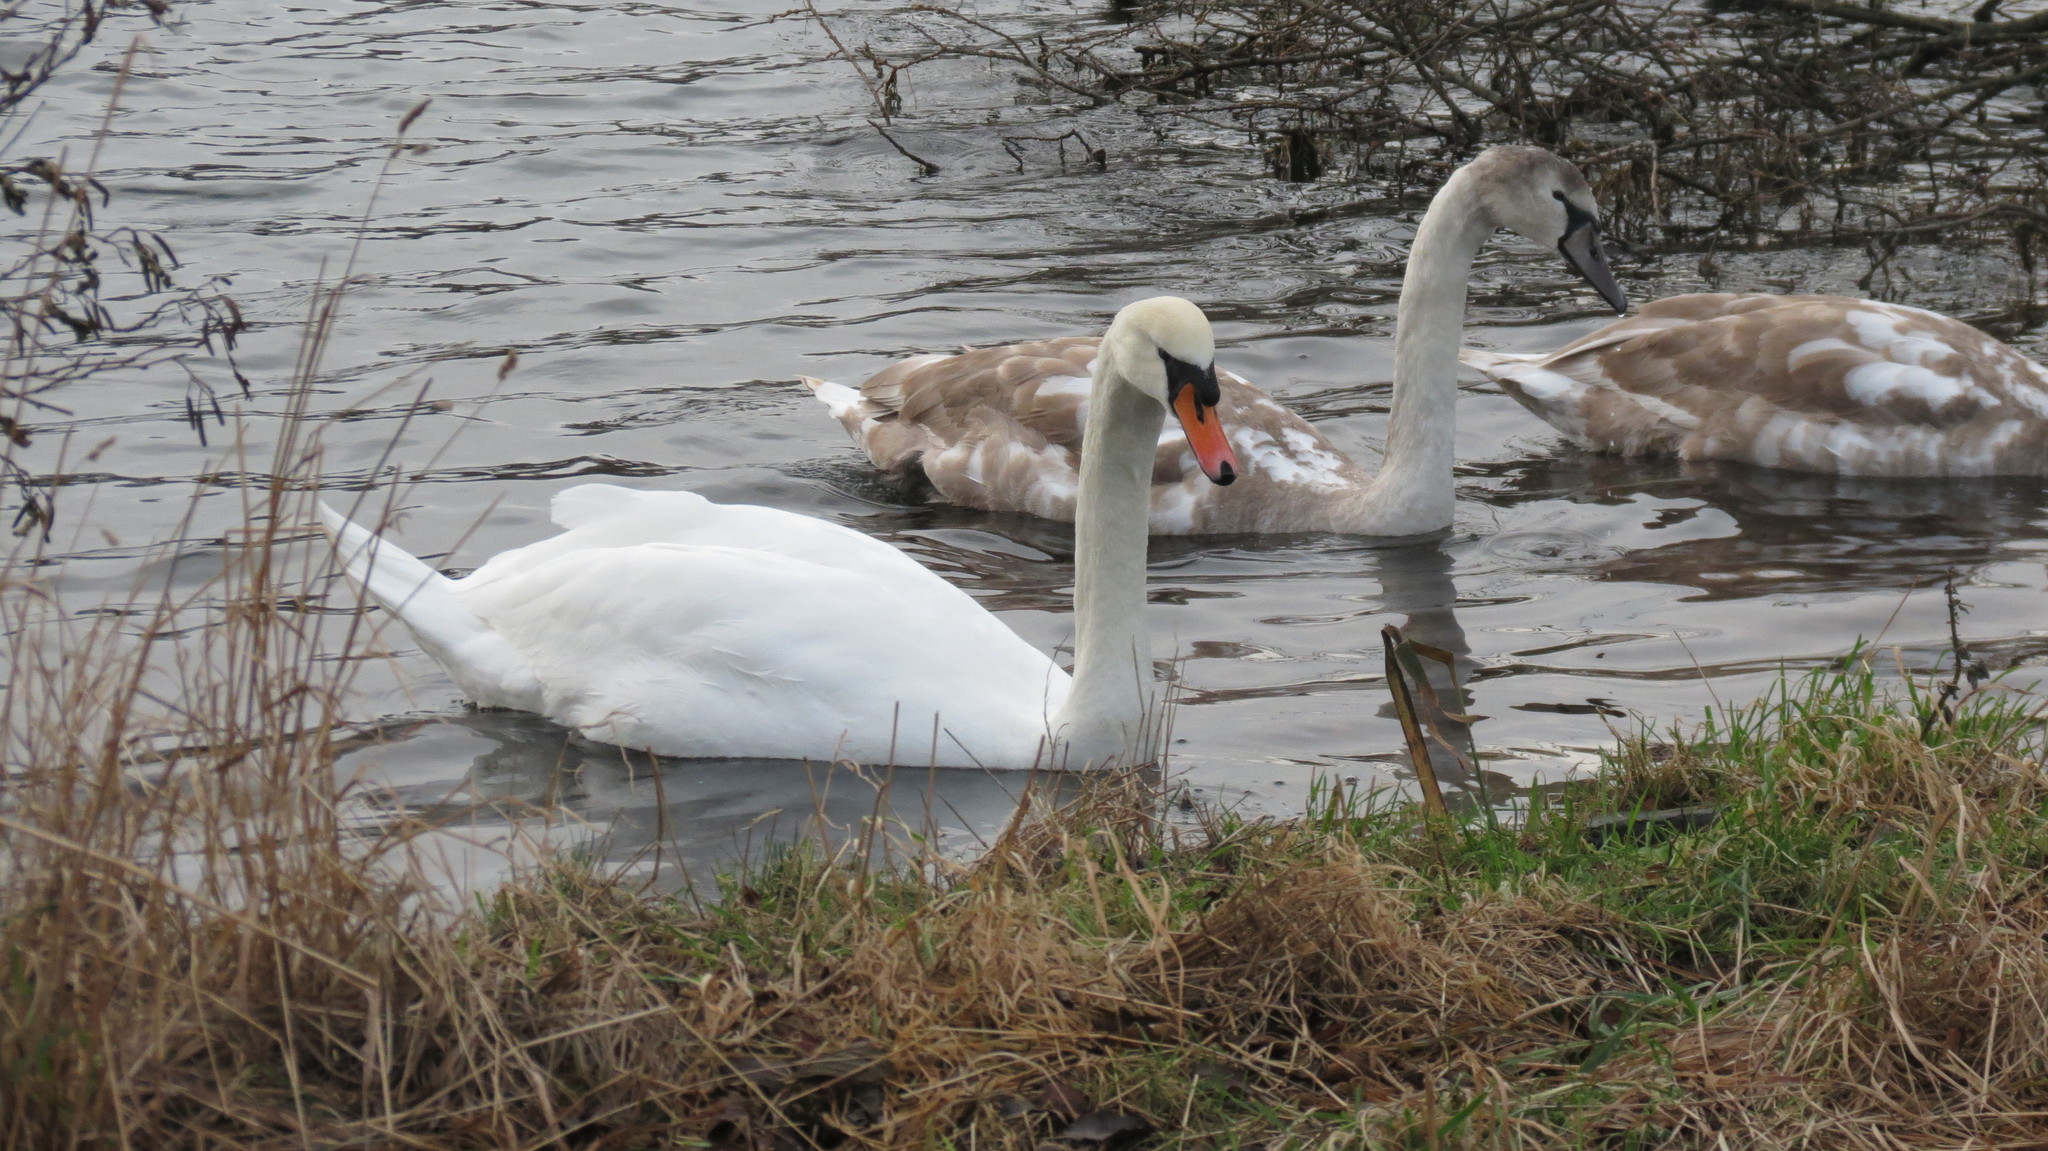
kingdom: Animalia
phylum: Chordata
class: Aves
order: Anseriformes
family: Anatidae
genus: Cygnus
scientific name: Cygnus olor
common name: Mute swan
